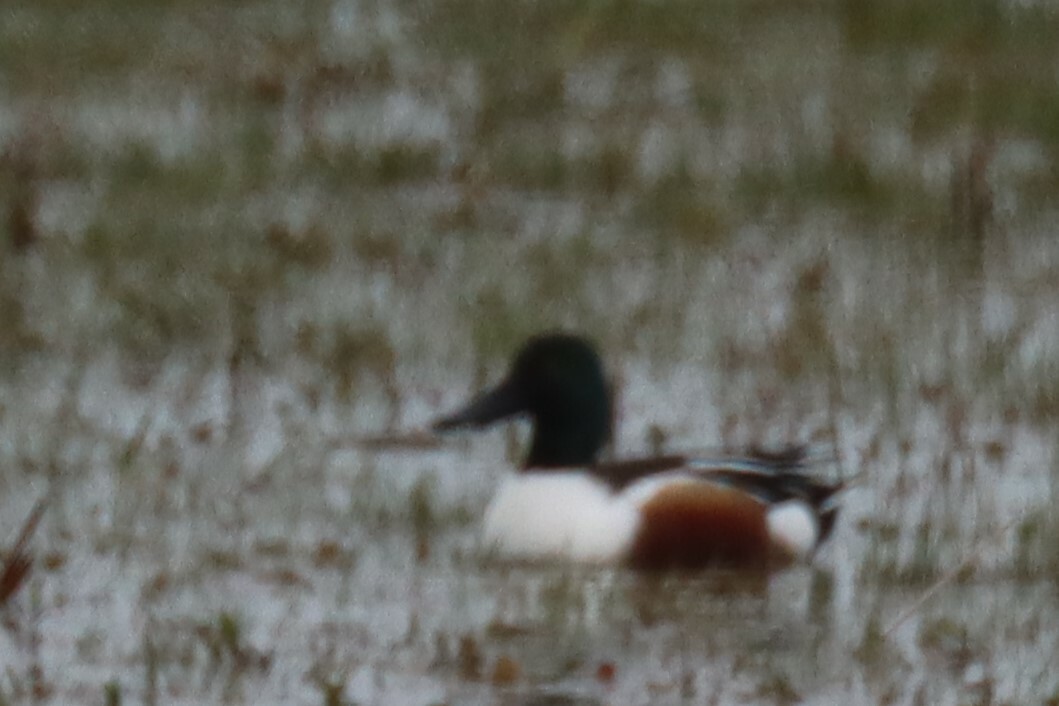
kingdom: Animalia
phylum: Chordata
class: Aves
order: Anseriformes
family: Anatidae
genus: Spatula
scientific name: Spatula clypeata
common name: Northern shoveler
